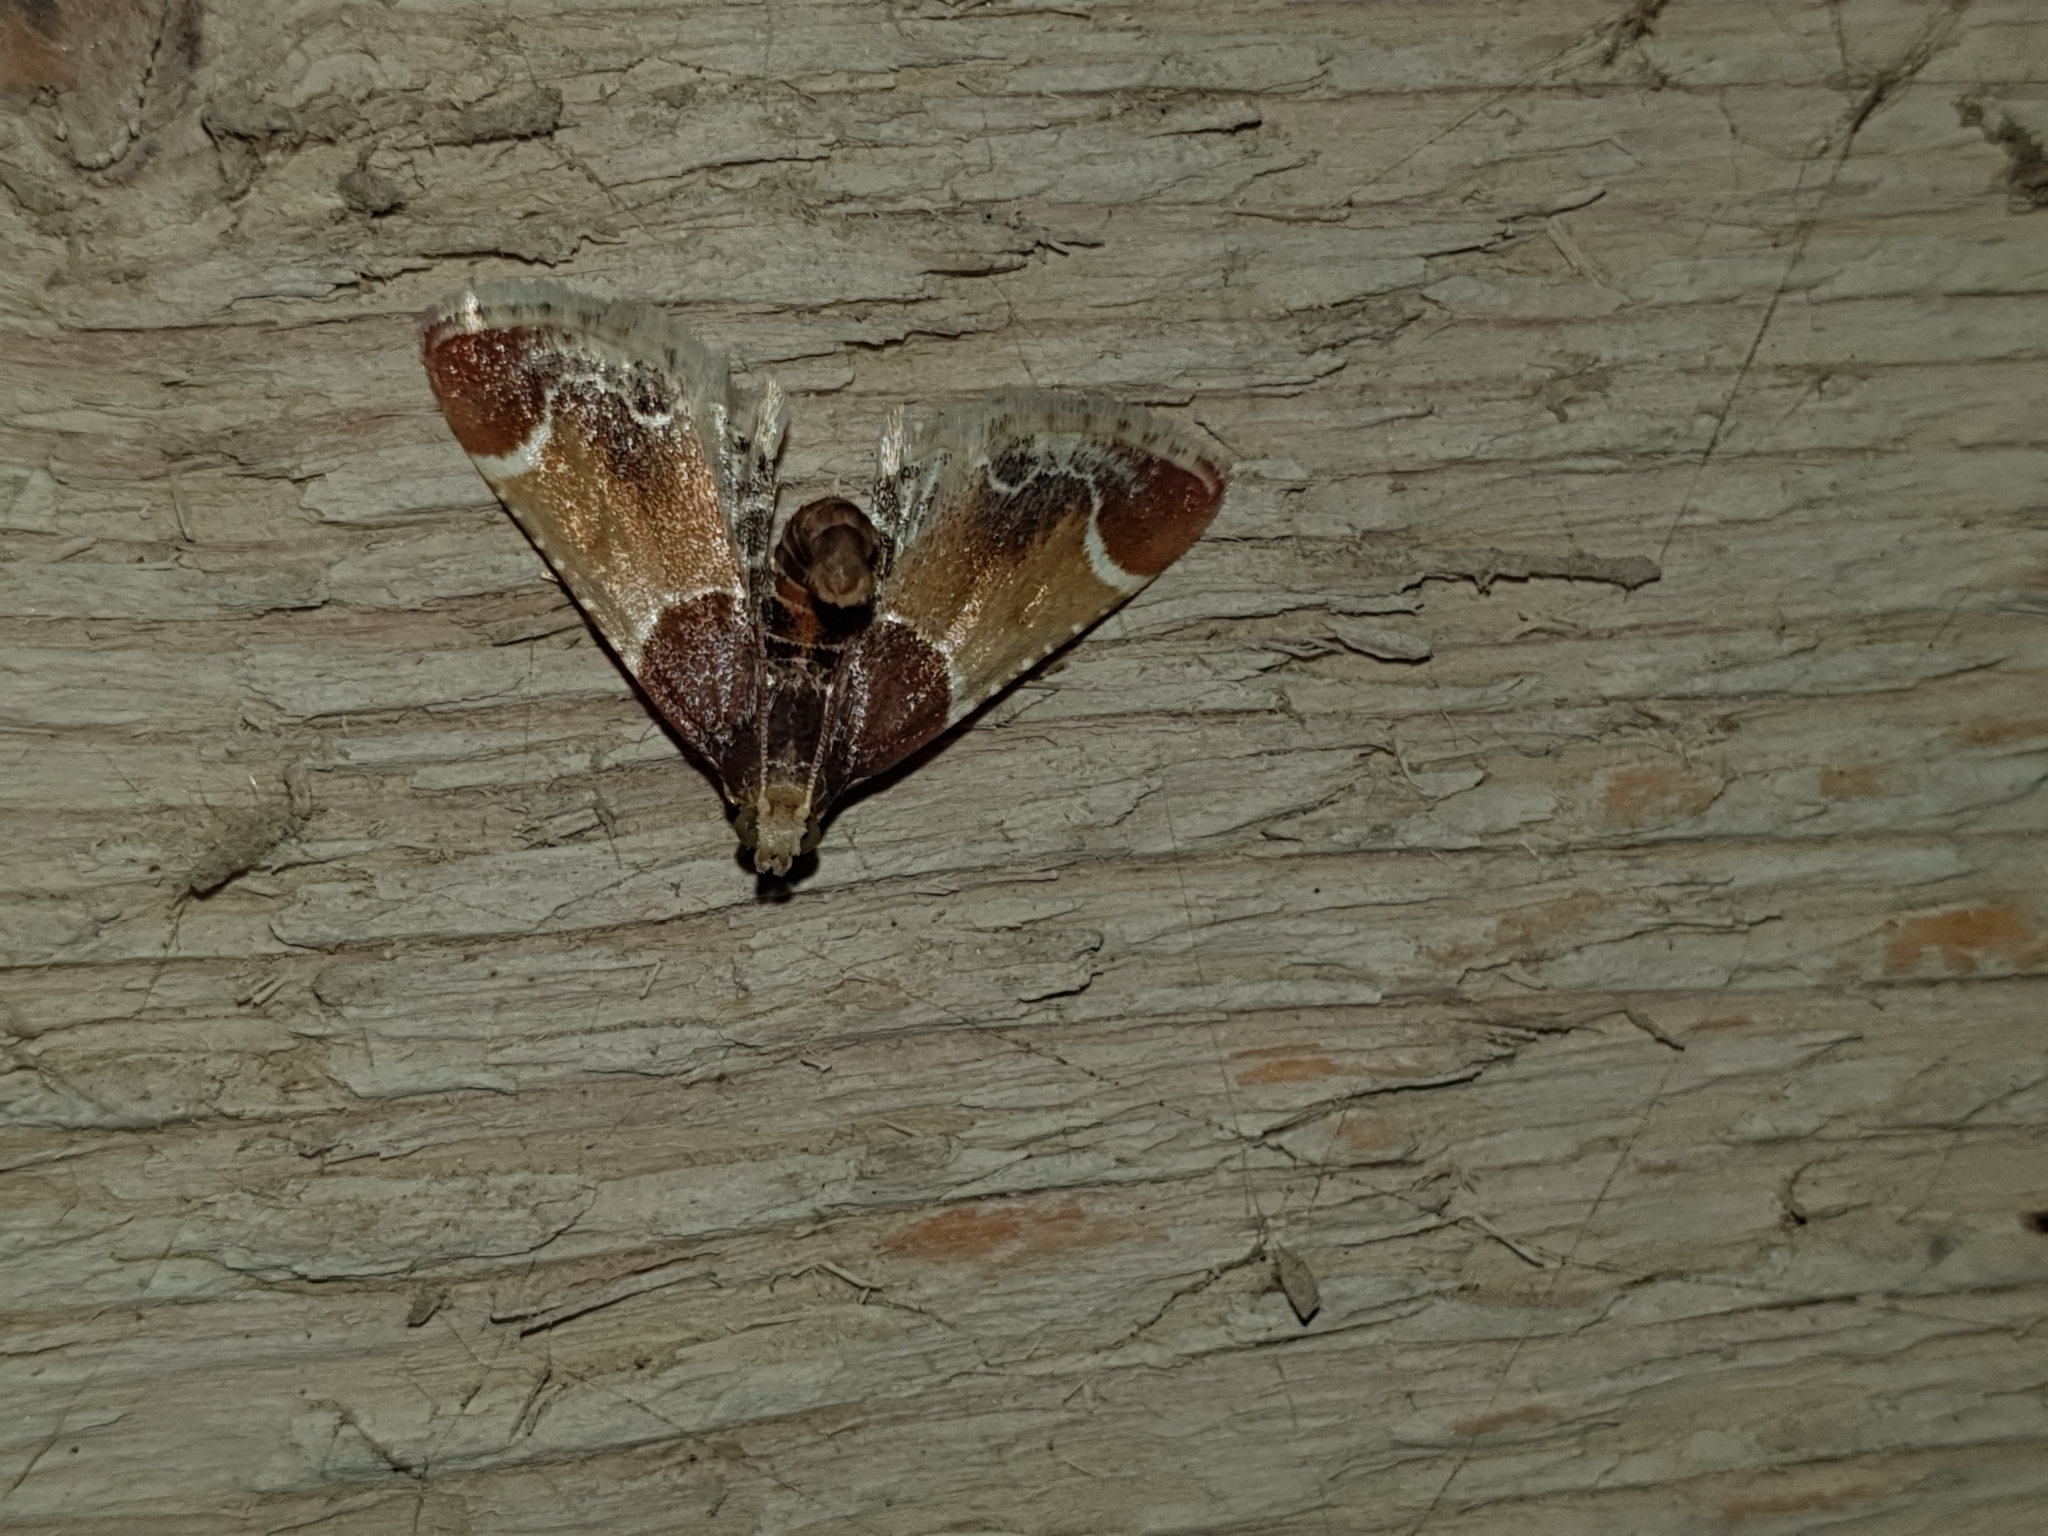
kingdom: Animalia
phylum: Arthropoda
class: Insecta
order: Lepidoptera
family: Pyralidae
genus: Pyralis
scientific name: Pyralis farinalis
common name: Meal moth
